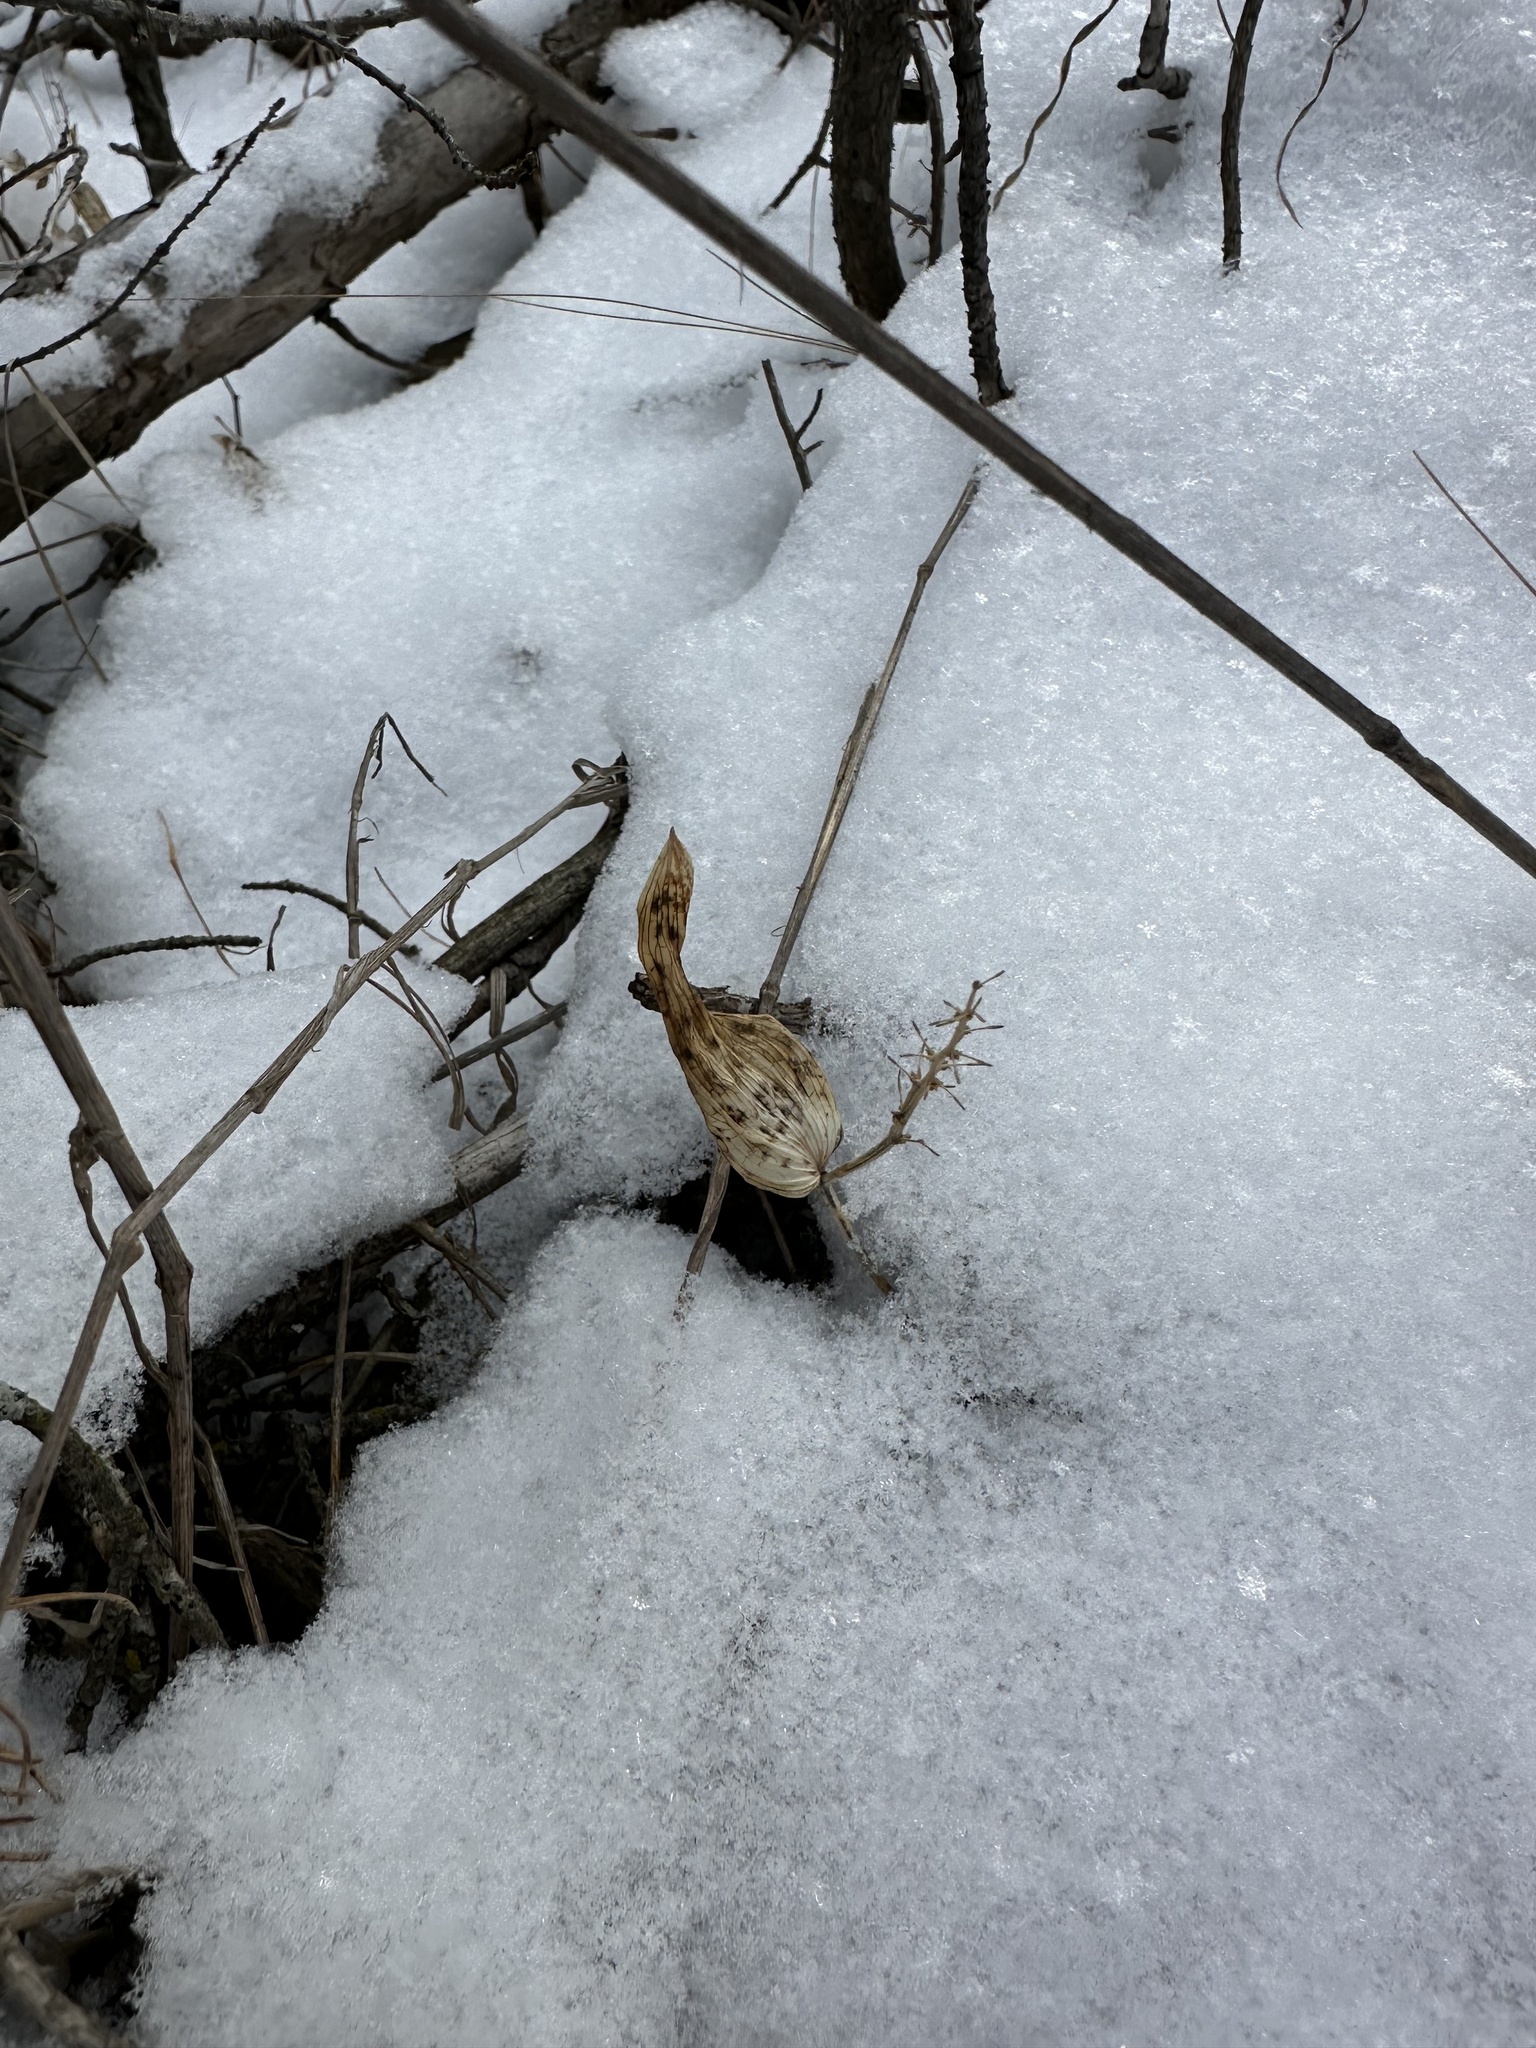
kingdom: Plantae
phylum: Tracheophyta
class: Liliopsida
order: Asparagales
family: Asparagaceae
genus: Maianthemum
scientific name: Maianthemum canadense
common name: False lily-of-the-valley
